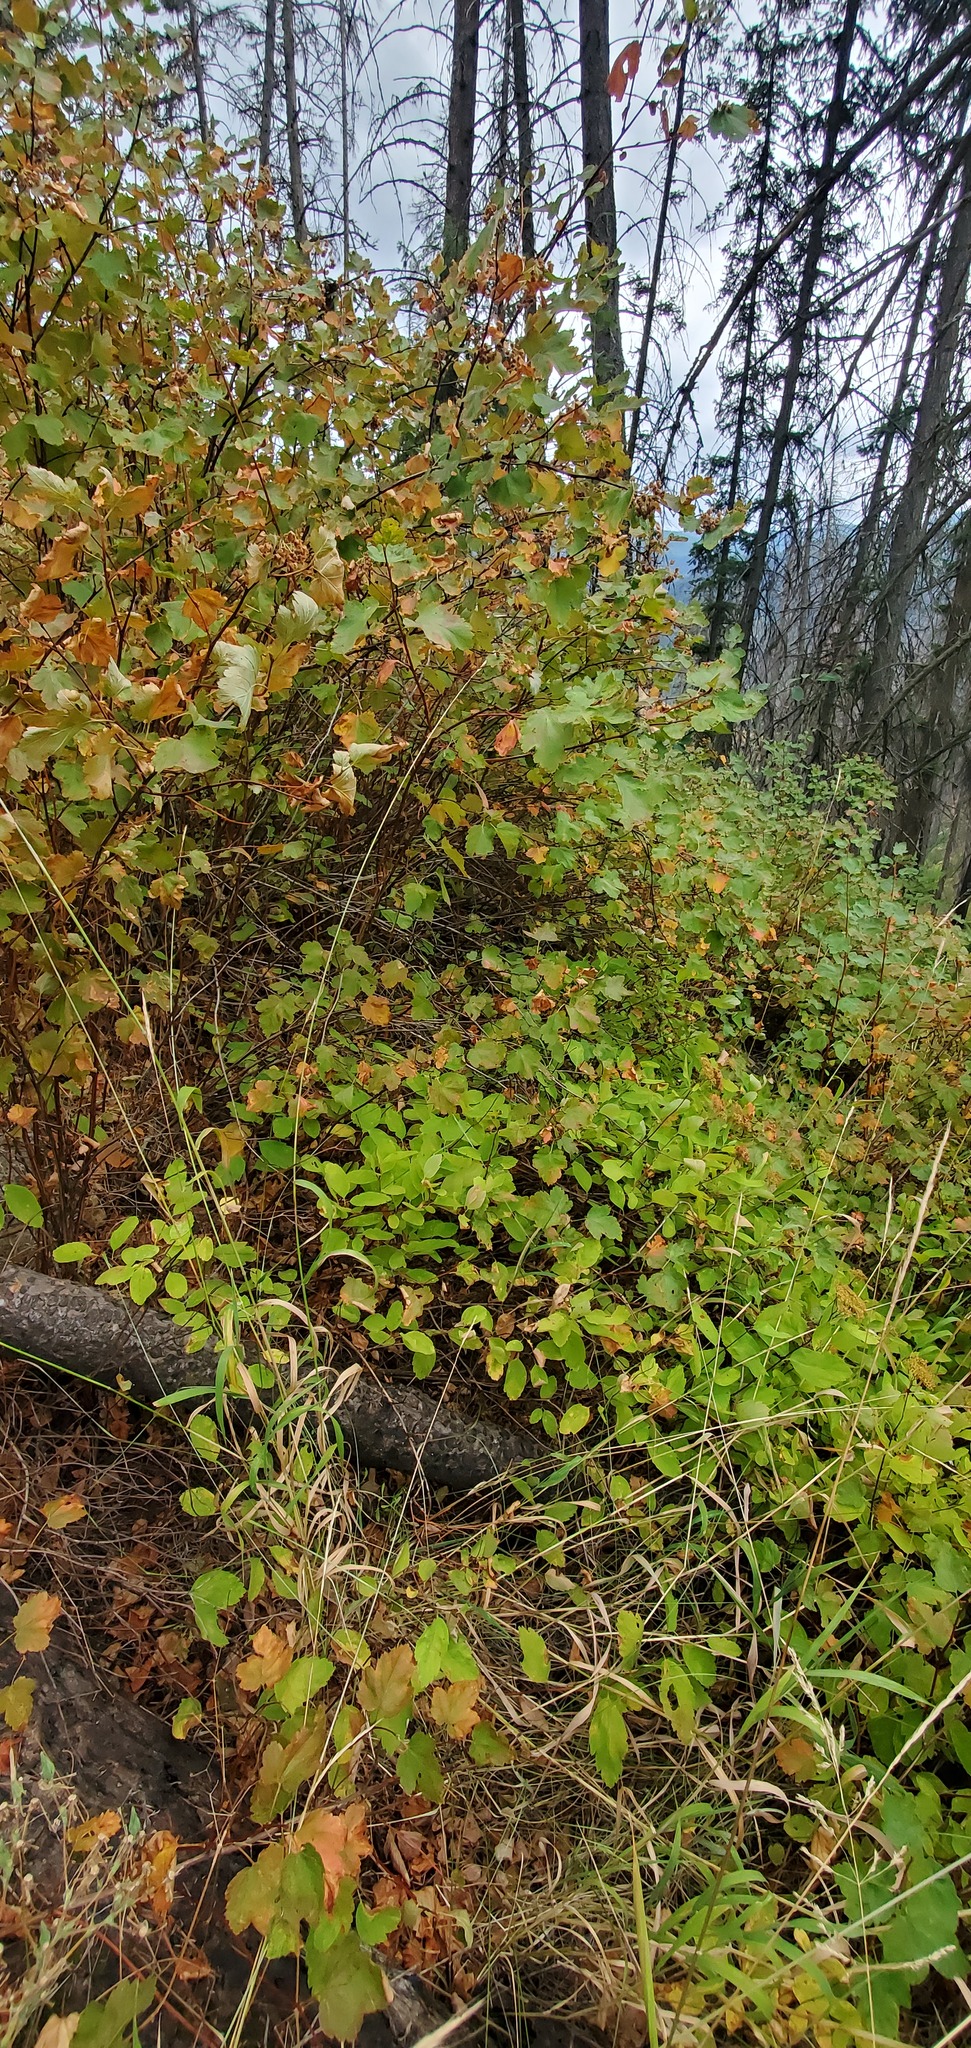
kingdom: Plantae
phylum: Tracheophyta
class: Magnoliopsida
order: Rosales
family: Rosaceae
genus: Physocarpus
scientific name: Physocarpus malvaceus
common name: Mallow ninebark
